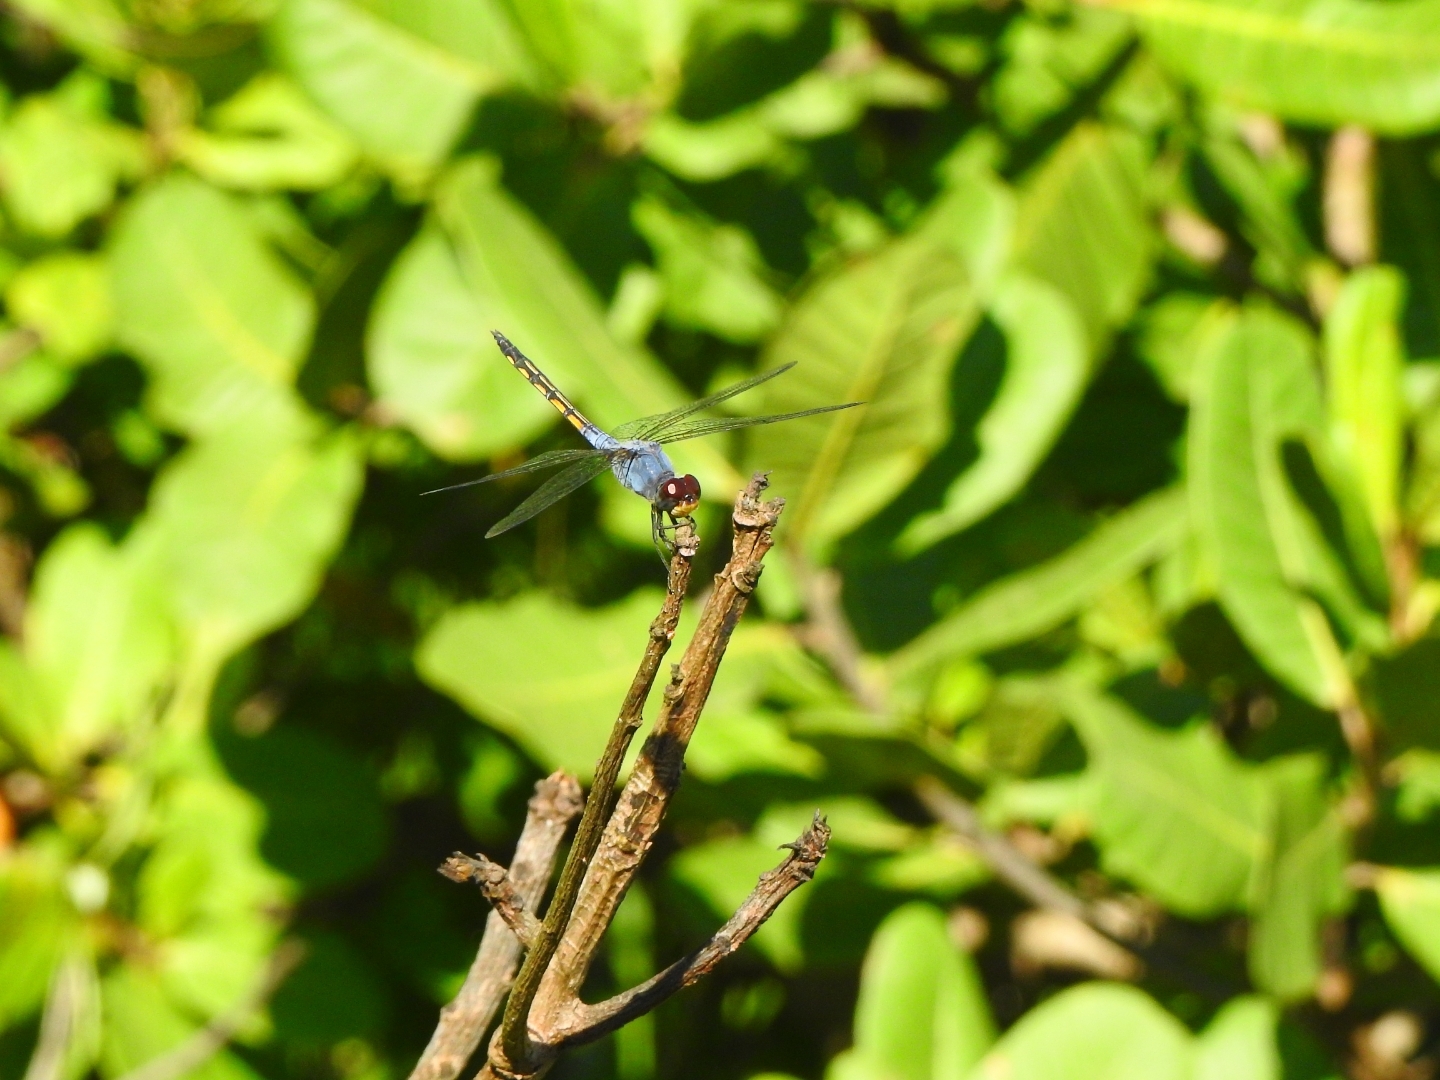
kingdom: Animalia
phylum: Arthropoda
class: Insecta
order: Odonata
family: Libellulidae
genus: Potamarcha
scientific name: Potamarcha congener
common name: Blue chaser
